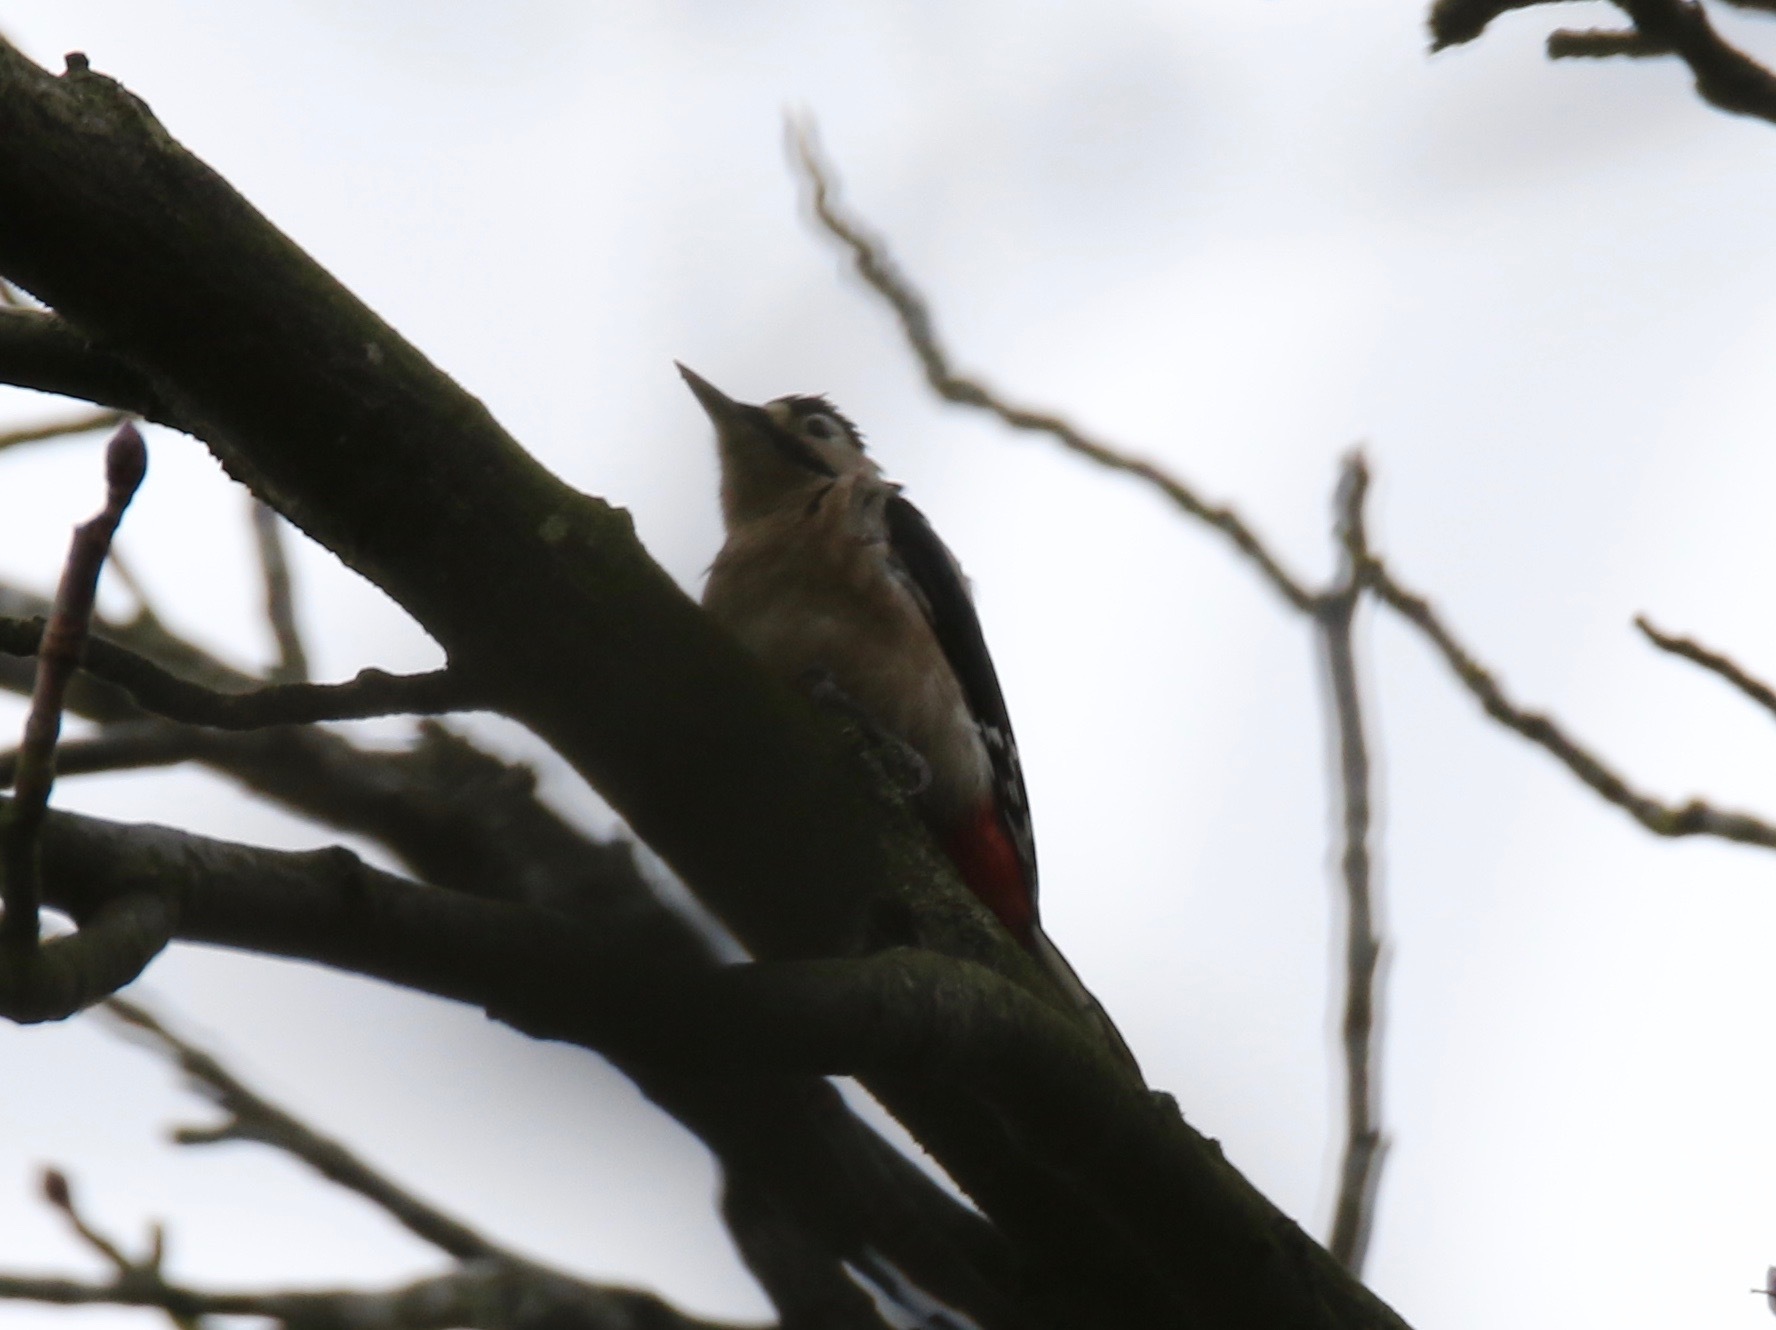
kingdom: Animalia
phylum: Chordata
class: Aves
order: Piciformes
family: Picidae
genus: Dendrocopos
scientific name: Dendrocopos major
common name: Great spotted woodpecker
